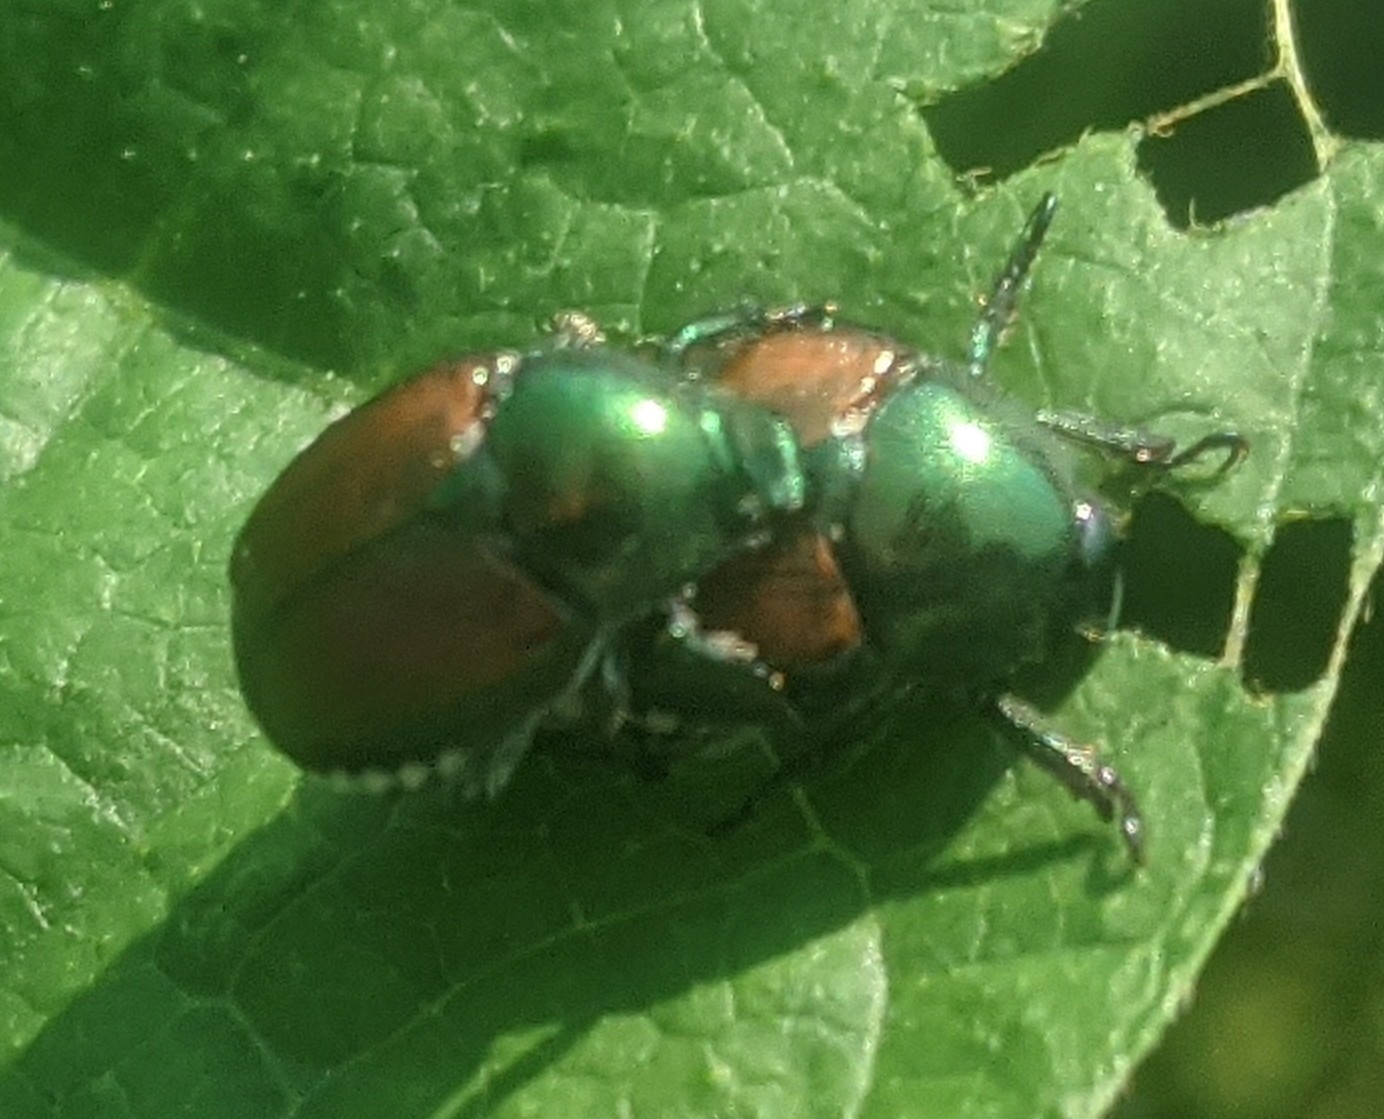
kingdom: Animalia
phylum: Arthropoda
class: Insecta
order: Coleoptera
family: Scarabaeidae
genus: Popillia
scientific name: Popillia japonica
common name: Japanese beetle
